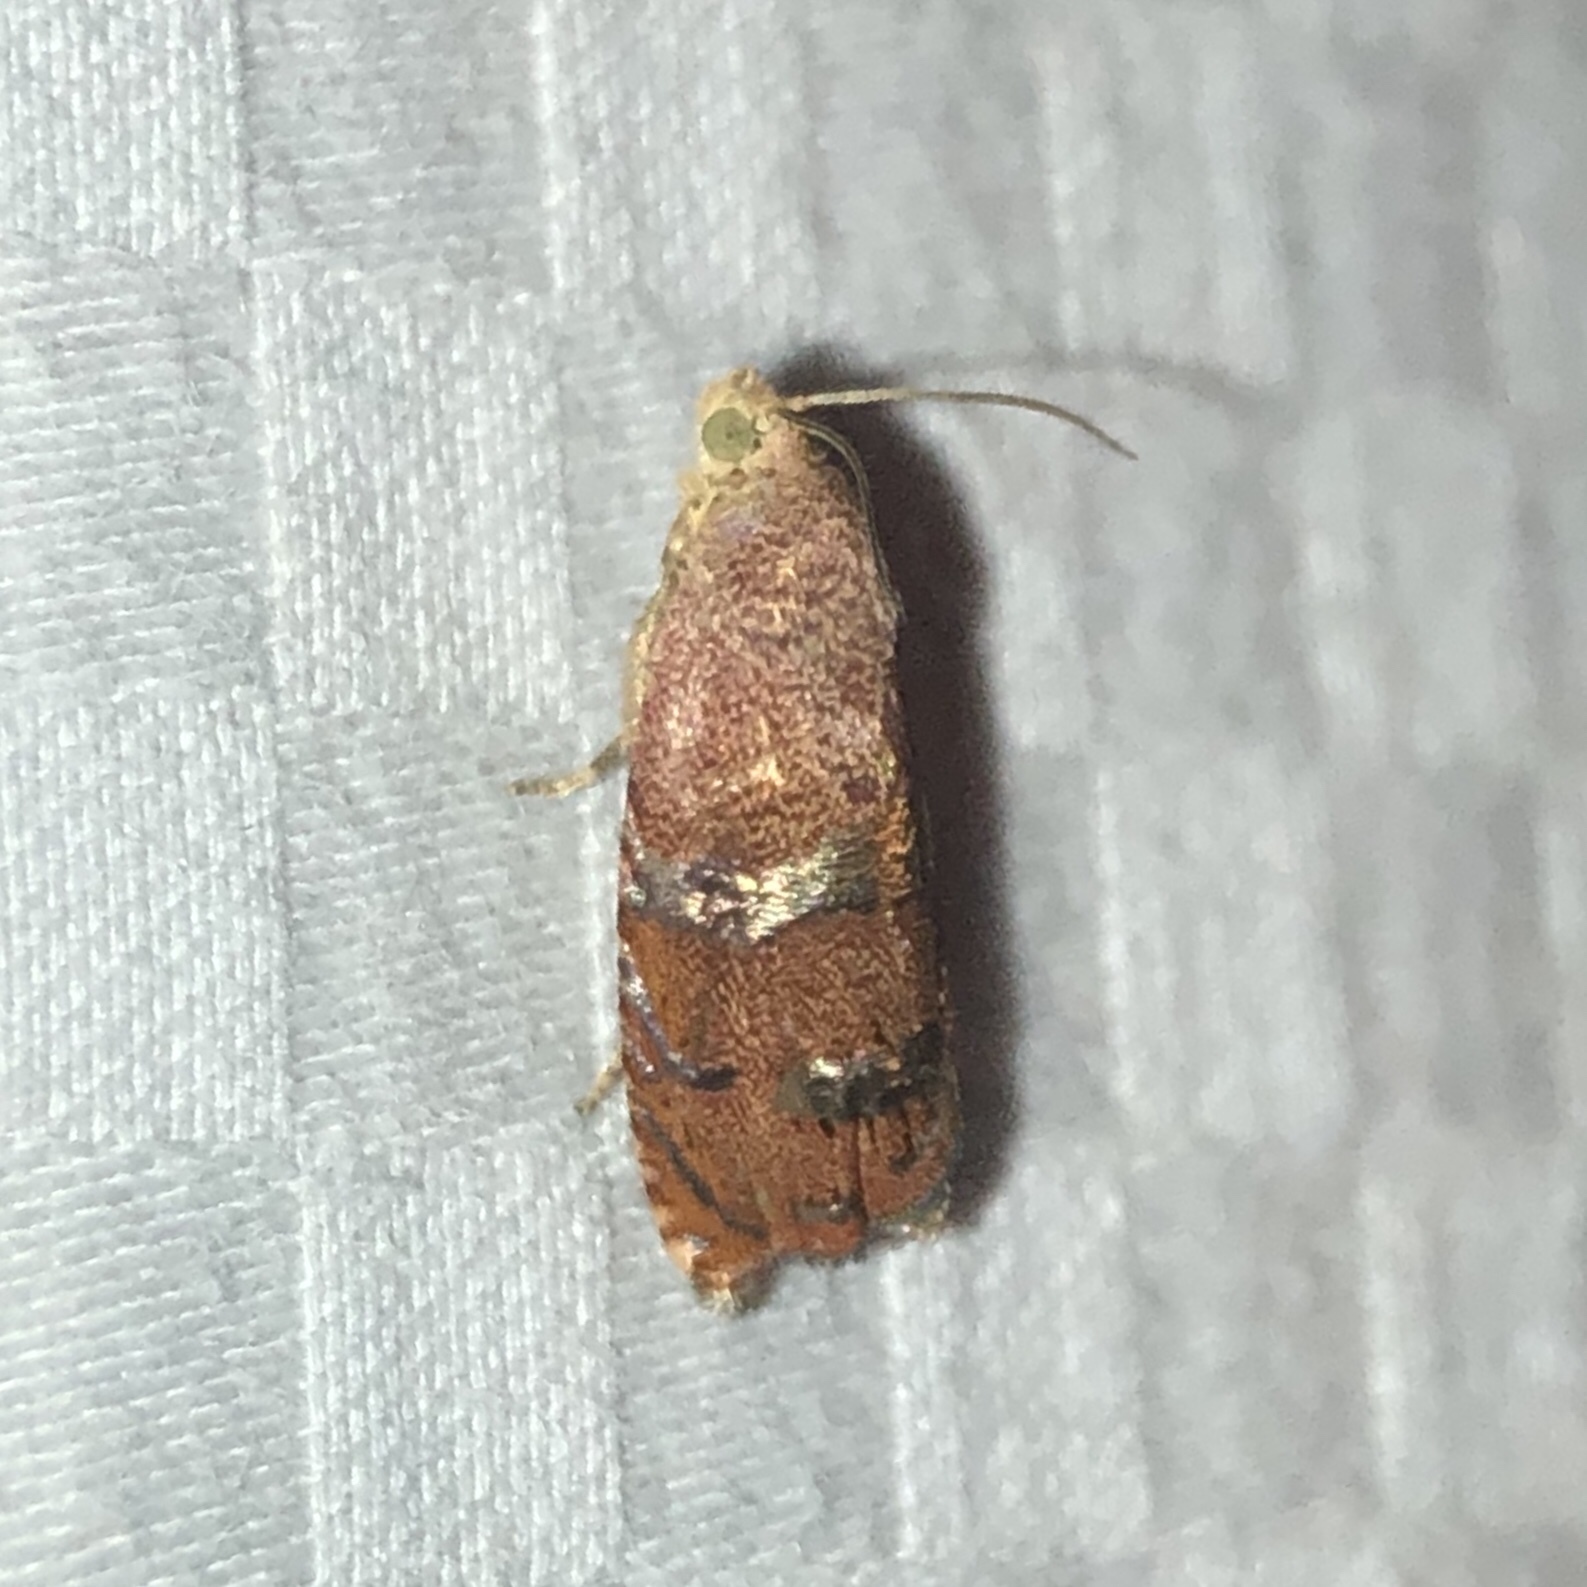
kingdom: Animalia
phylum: Arthropoda
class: Insecta
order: Lepidoptera
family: Tortricidae
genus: Cydia
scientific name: Cydia latiferreana
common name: Filbertworm moth
